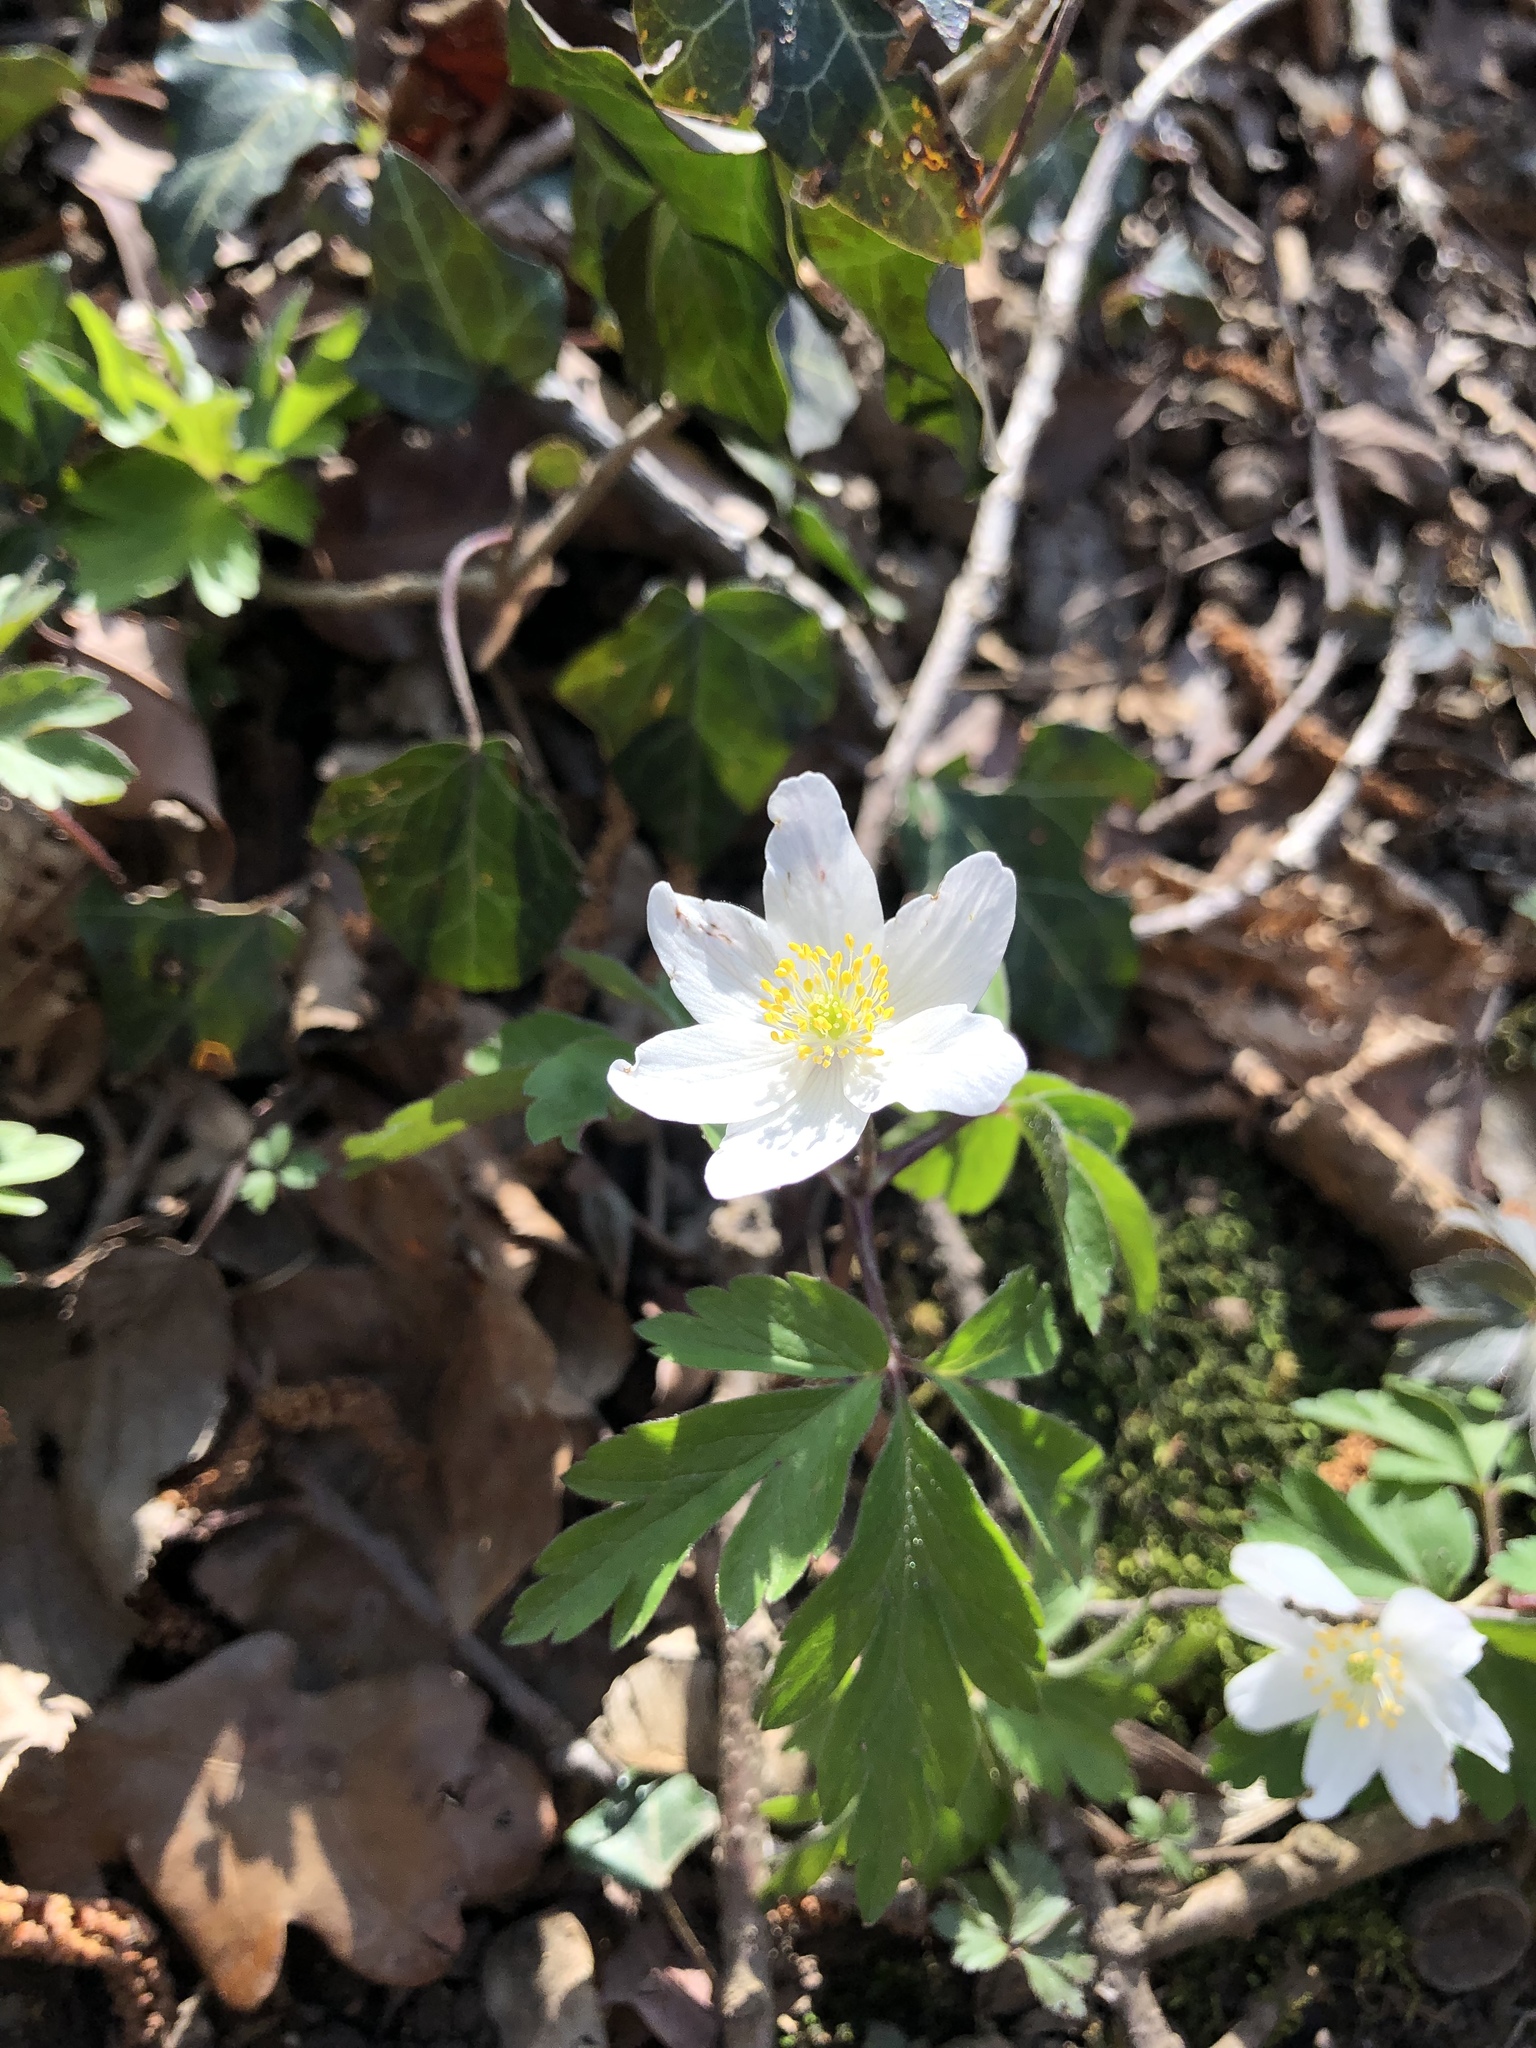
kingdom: Plantae
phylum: Tracheophyta
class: Magnoliopsida
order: Ranunculales
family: Ranunculaceae
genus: Anemone
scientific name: Anemone nemorosa
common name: Wood anemone
